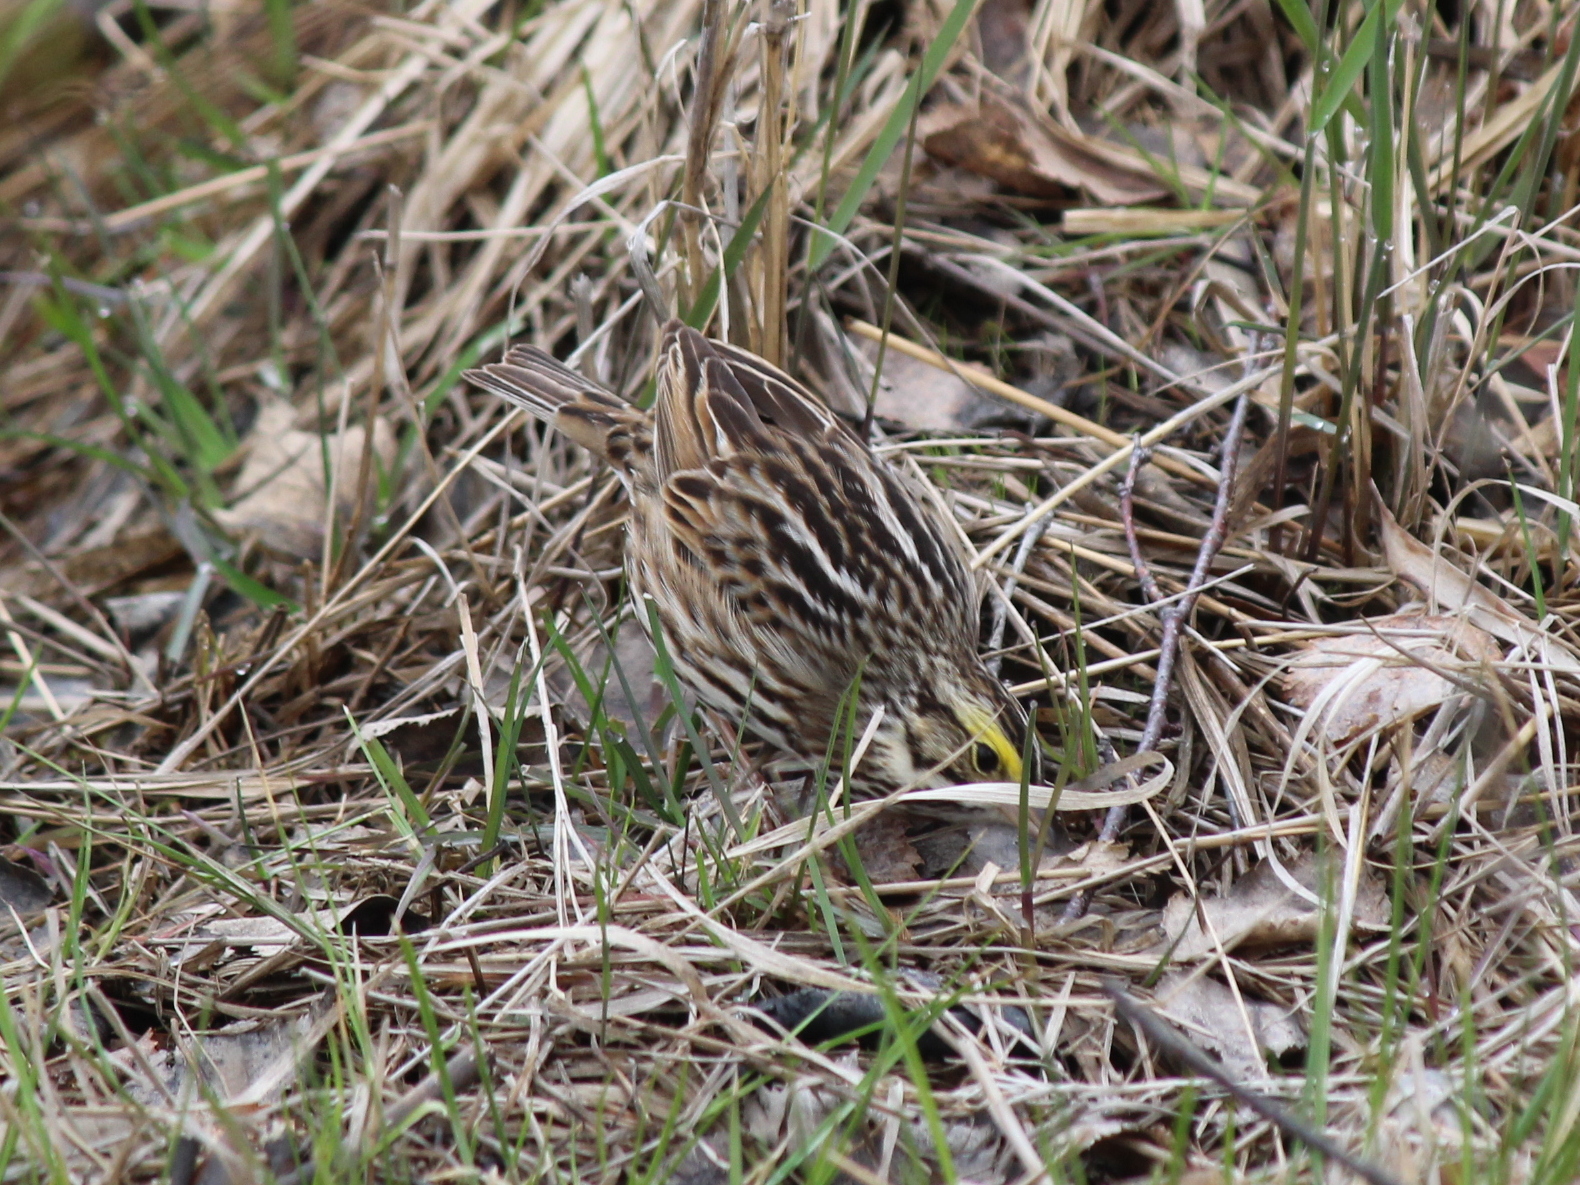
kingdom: Animalia
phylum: Chordata
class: Aves
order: Passeriformes
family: Passerellidae
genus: Passerculus
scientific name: Passerculus sandwichensis
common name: Savannah sparrow
